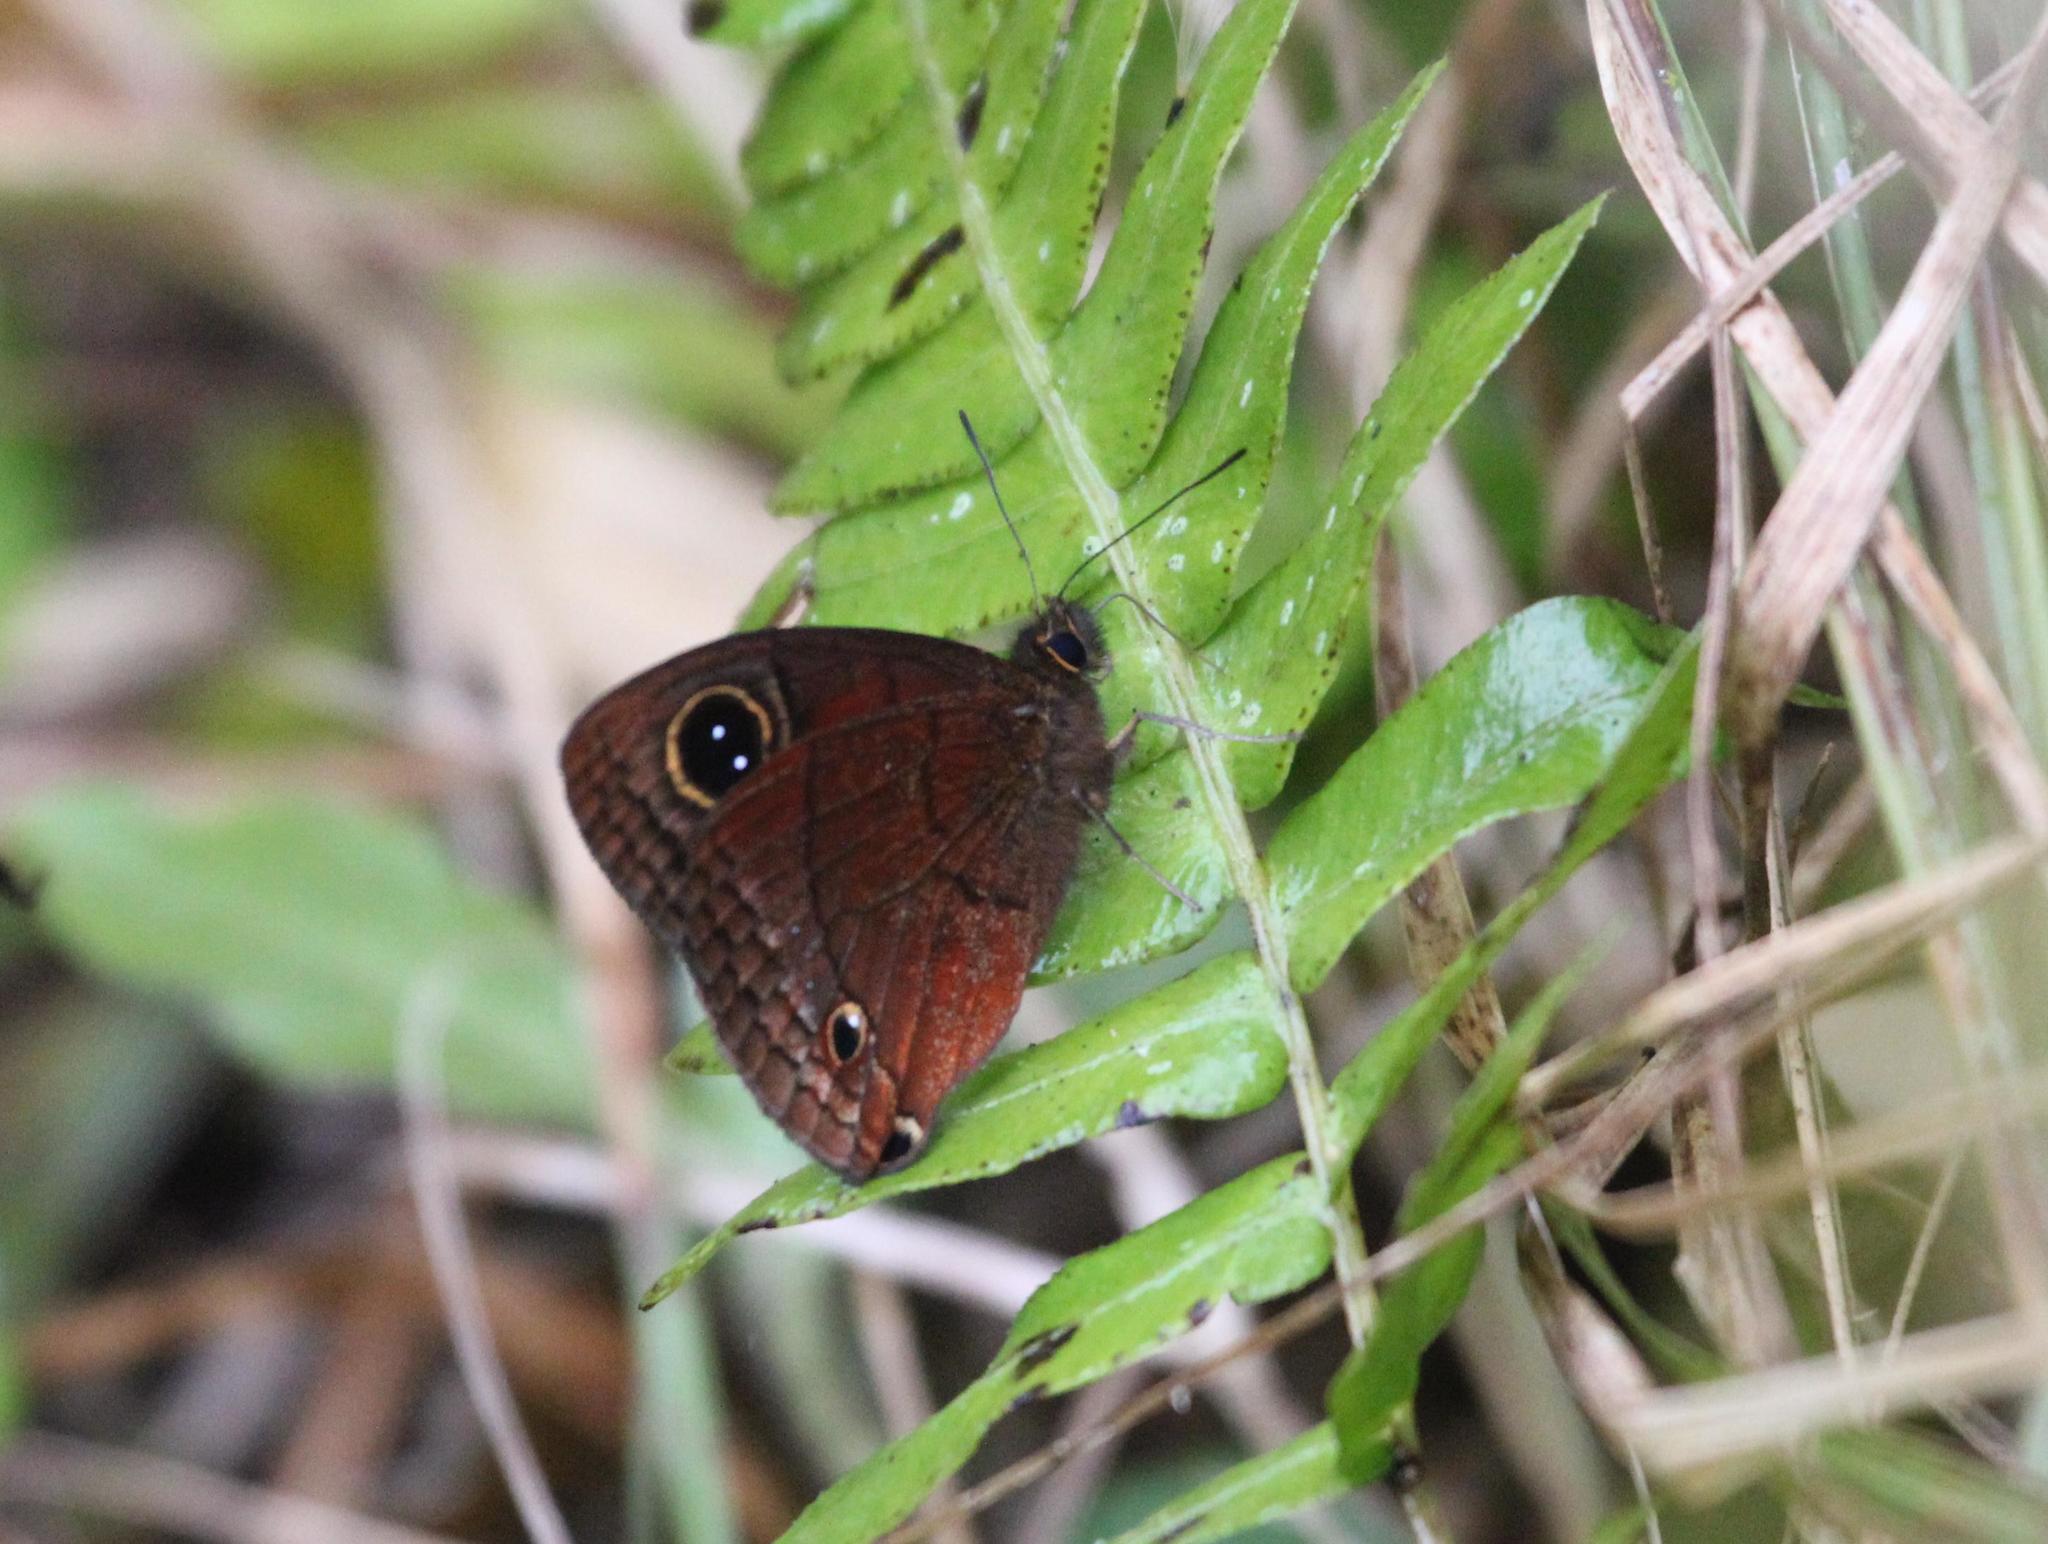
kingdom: Animalia
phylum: Arthropoda
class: Insecta
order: Lepidoptera
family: Nymphalidae
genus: Calisto
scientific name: Calisto nubila
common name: Puerto rican calisto
